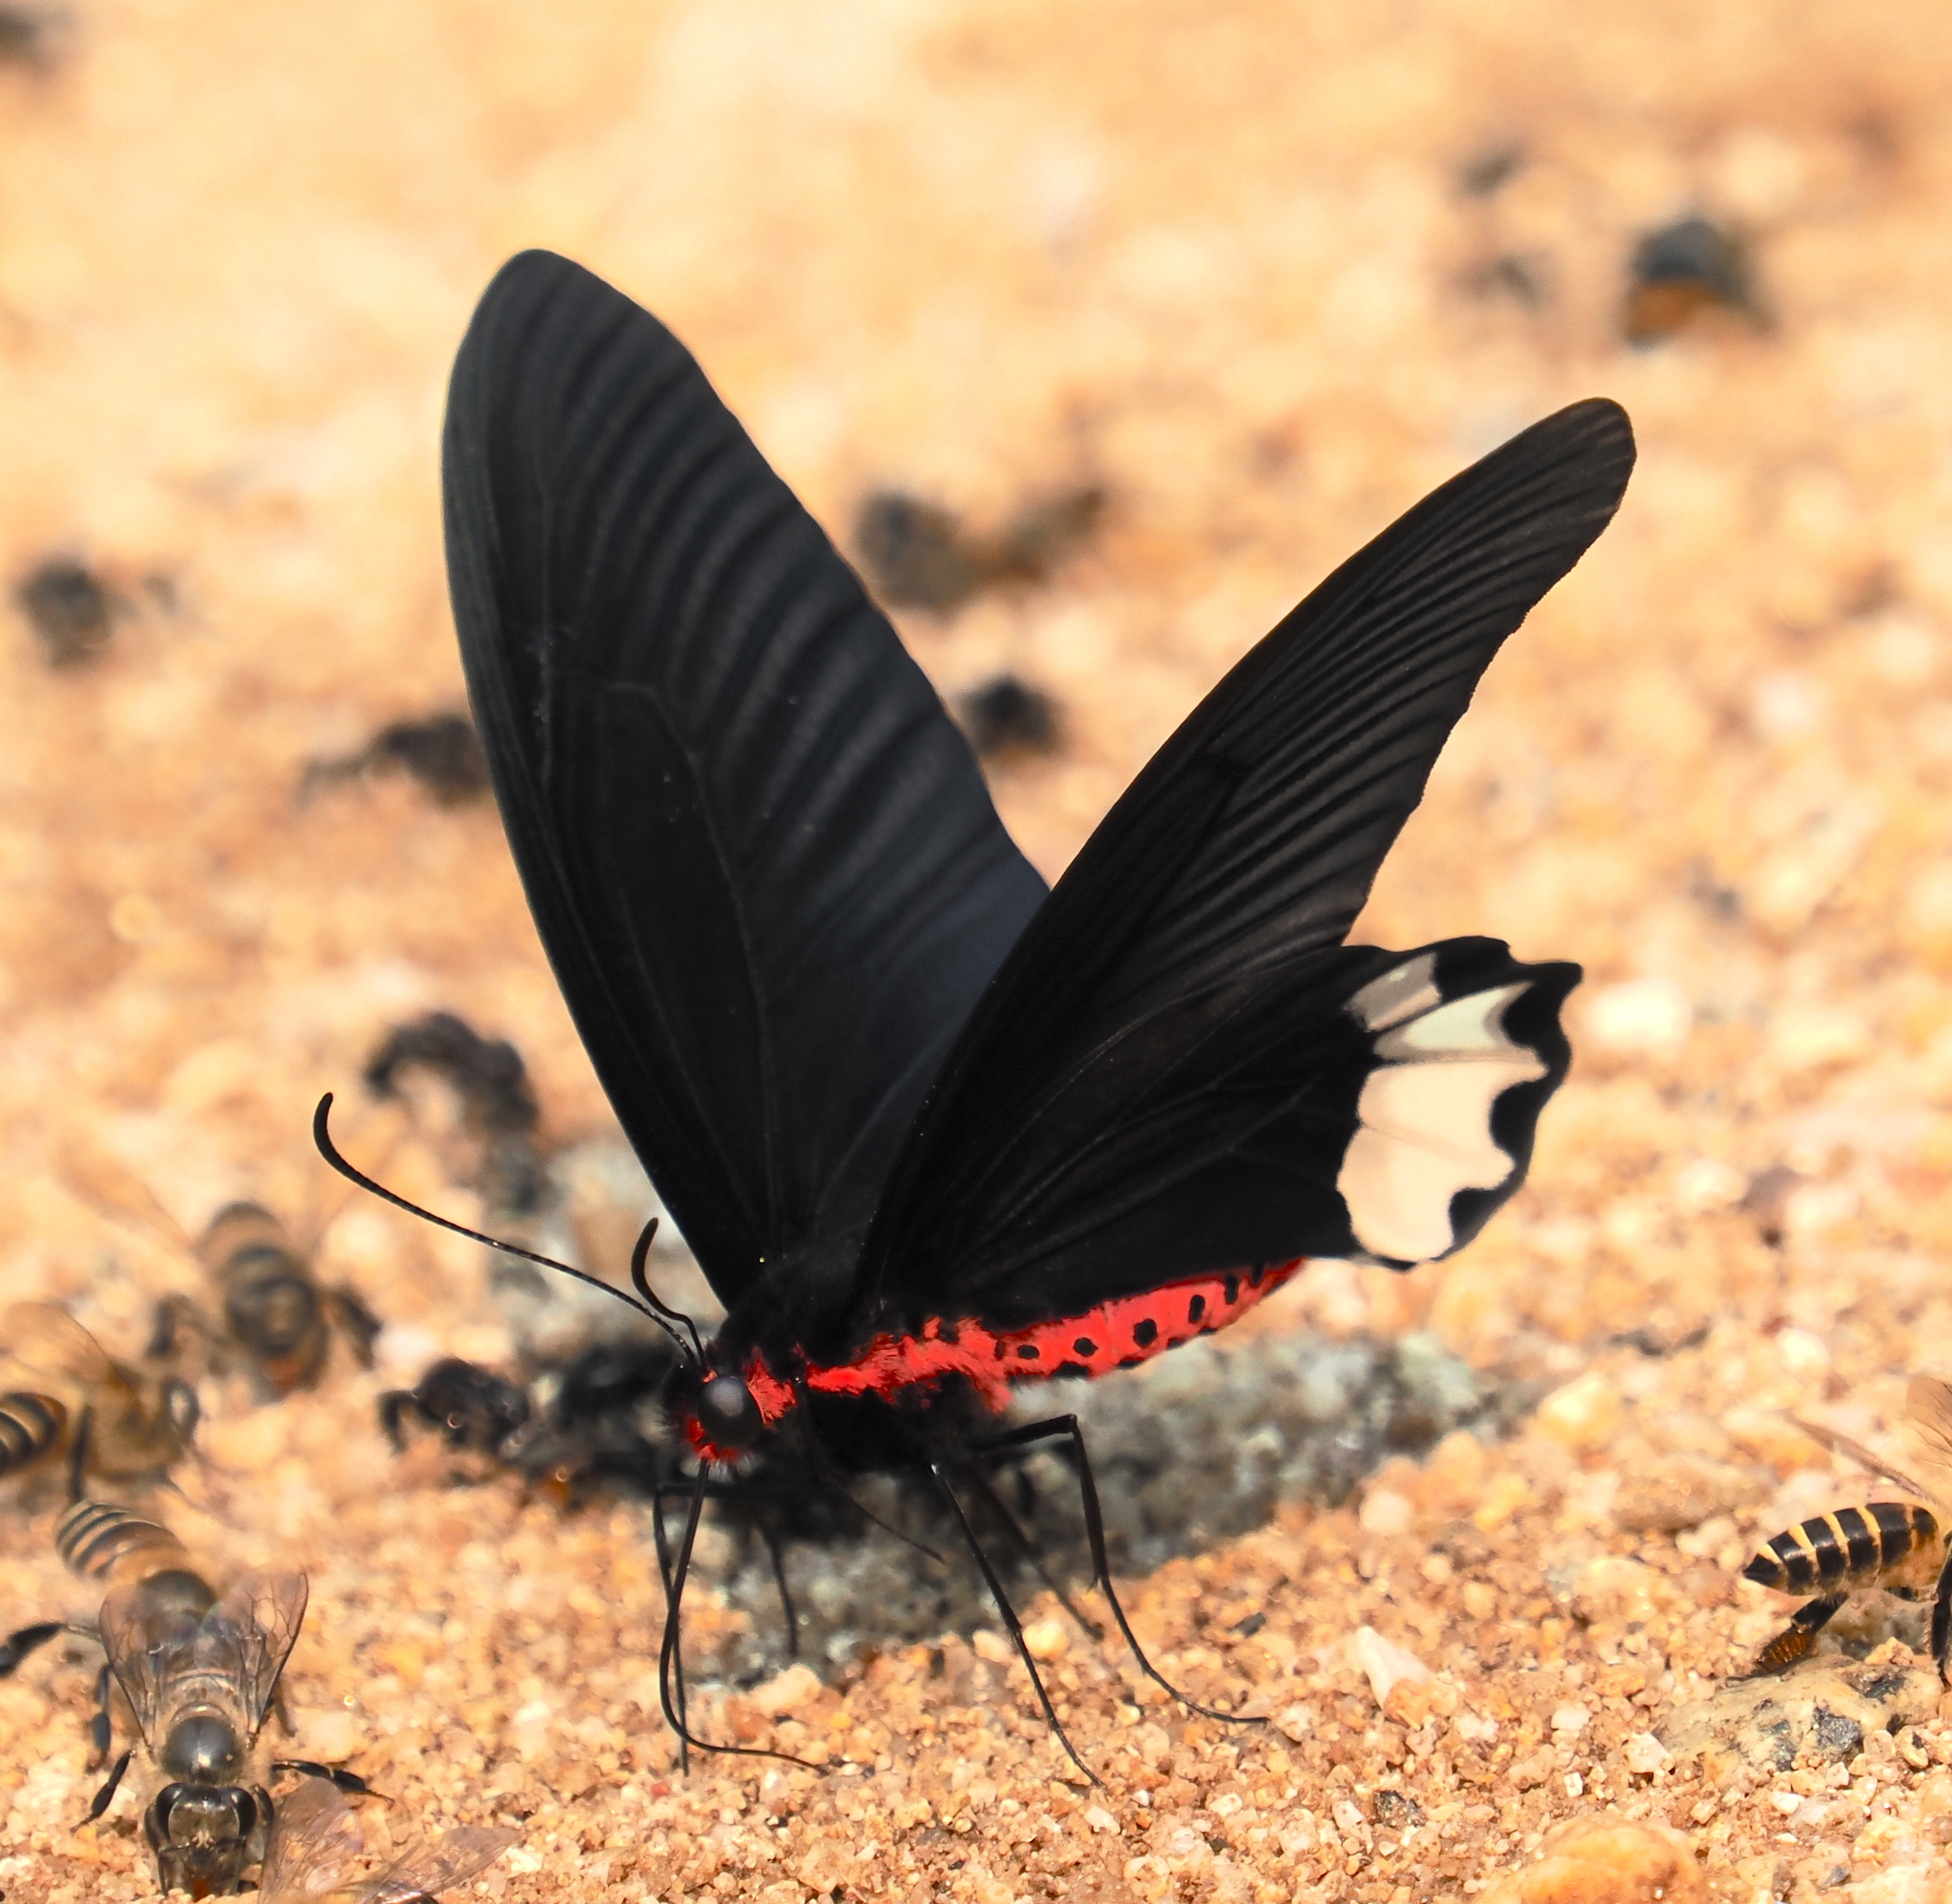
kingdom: Animalia
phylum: Arthropoda
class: Insecta
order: Lepidoptera
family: Papilionidae
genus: Atrophaneura
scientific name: Atrophaneura zaleucus
